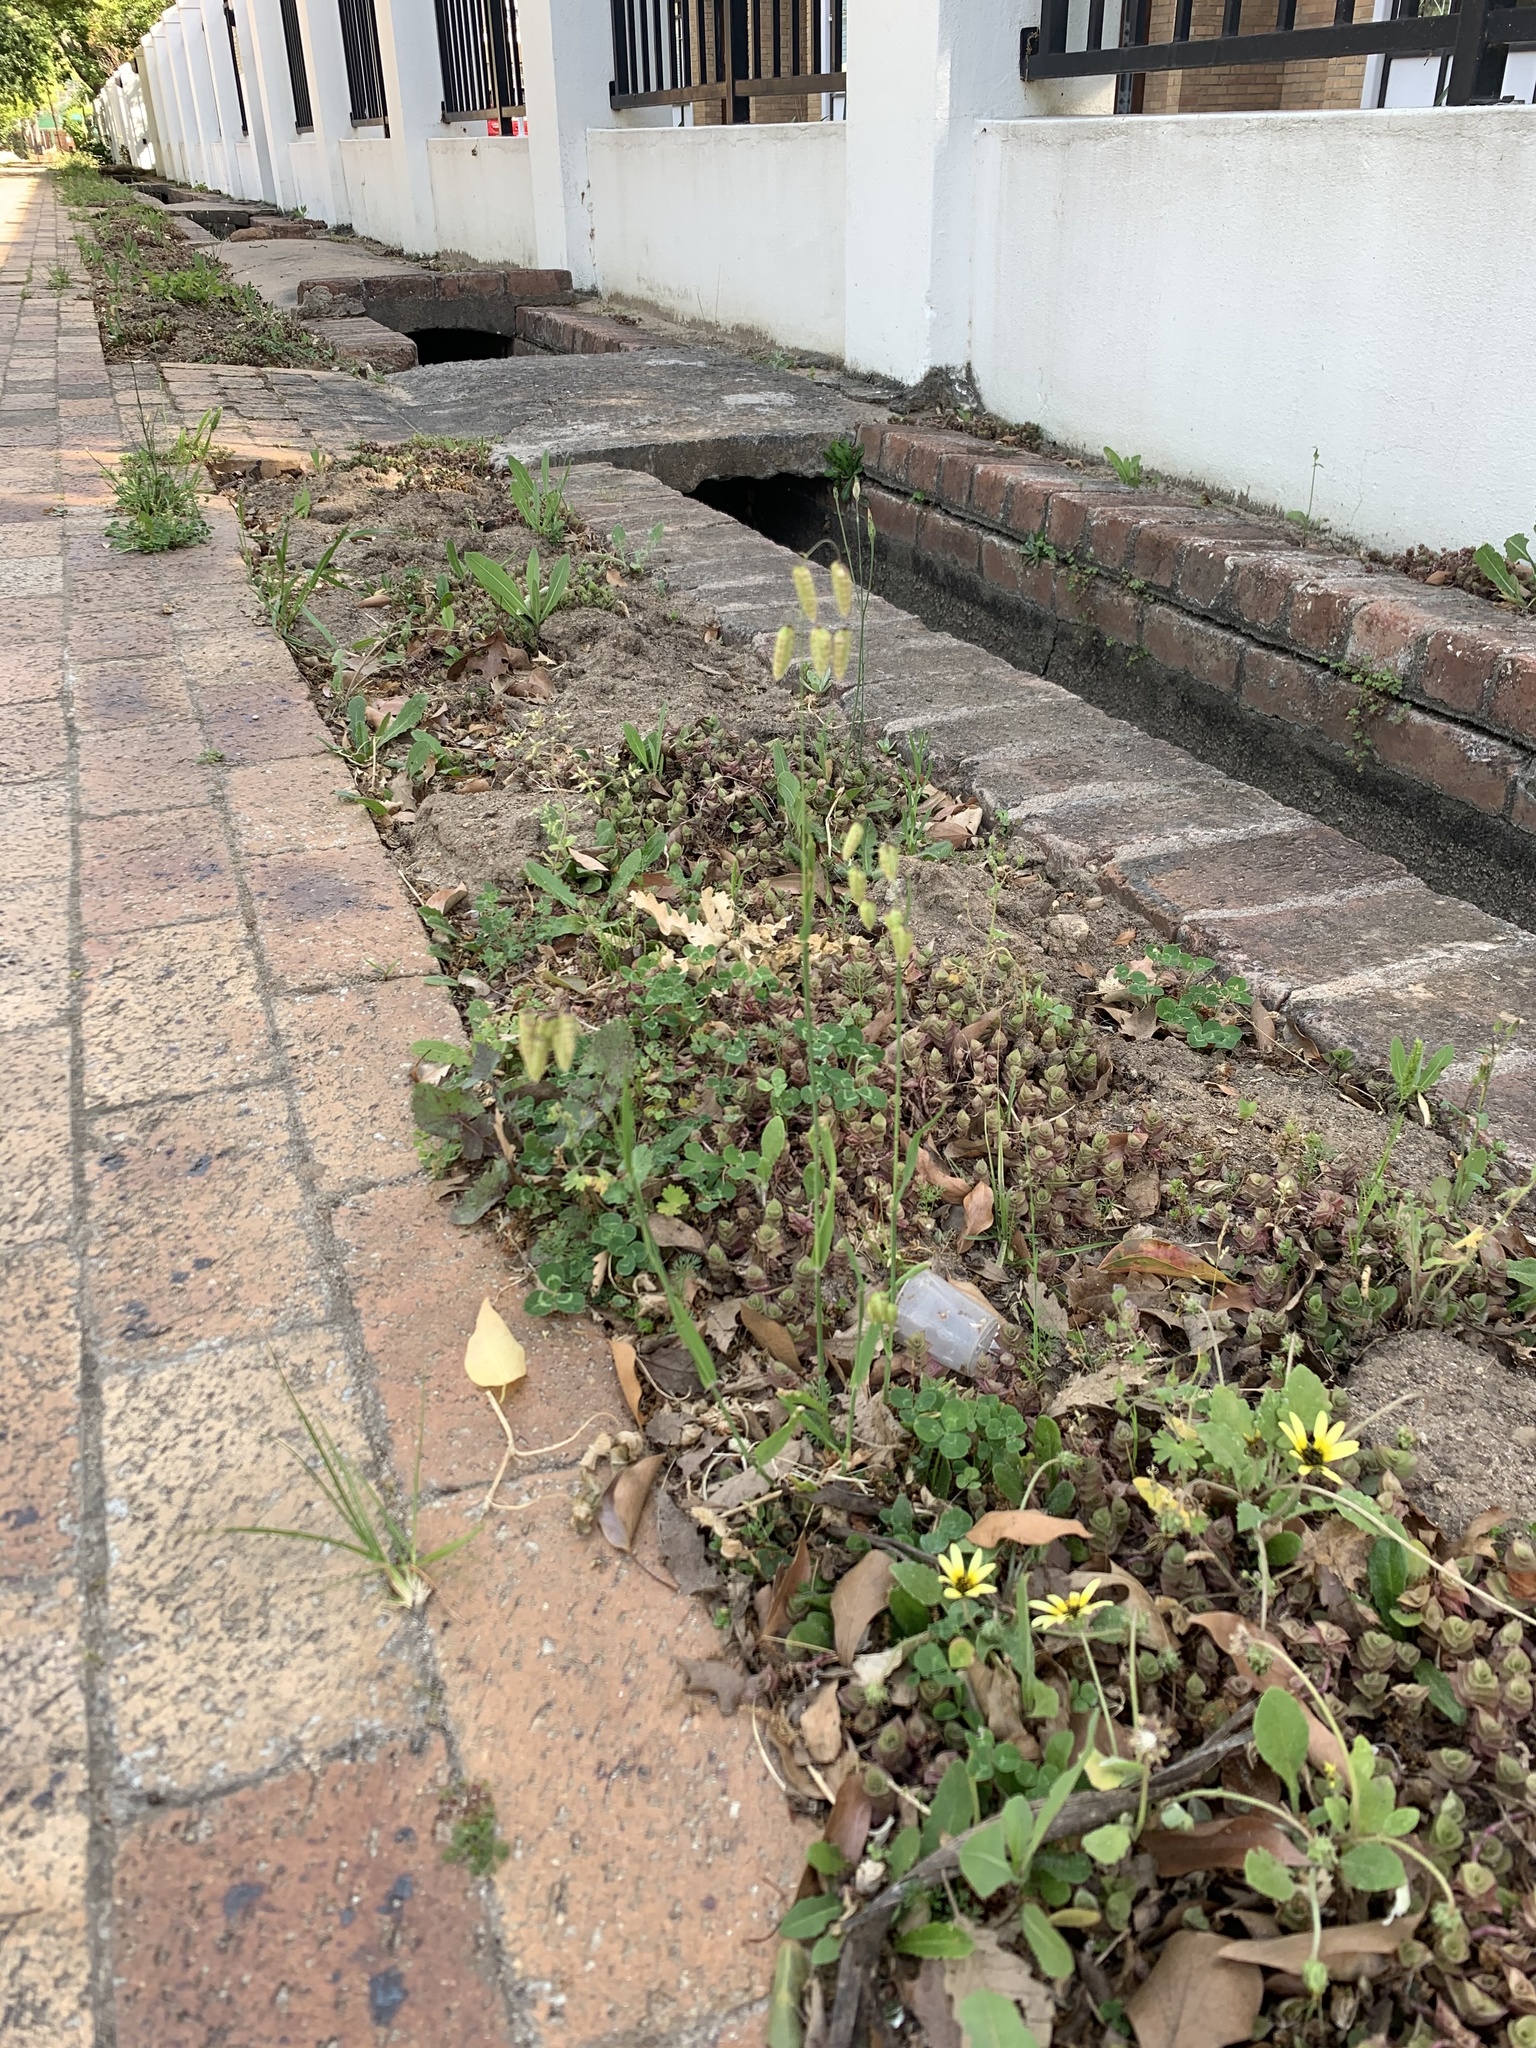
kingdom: Plantae
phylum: Tracheophyta
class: Liliopsida
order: Poales
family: Poaceae
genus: Briza
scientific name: Briza maxima
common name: Big quakinggrass
